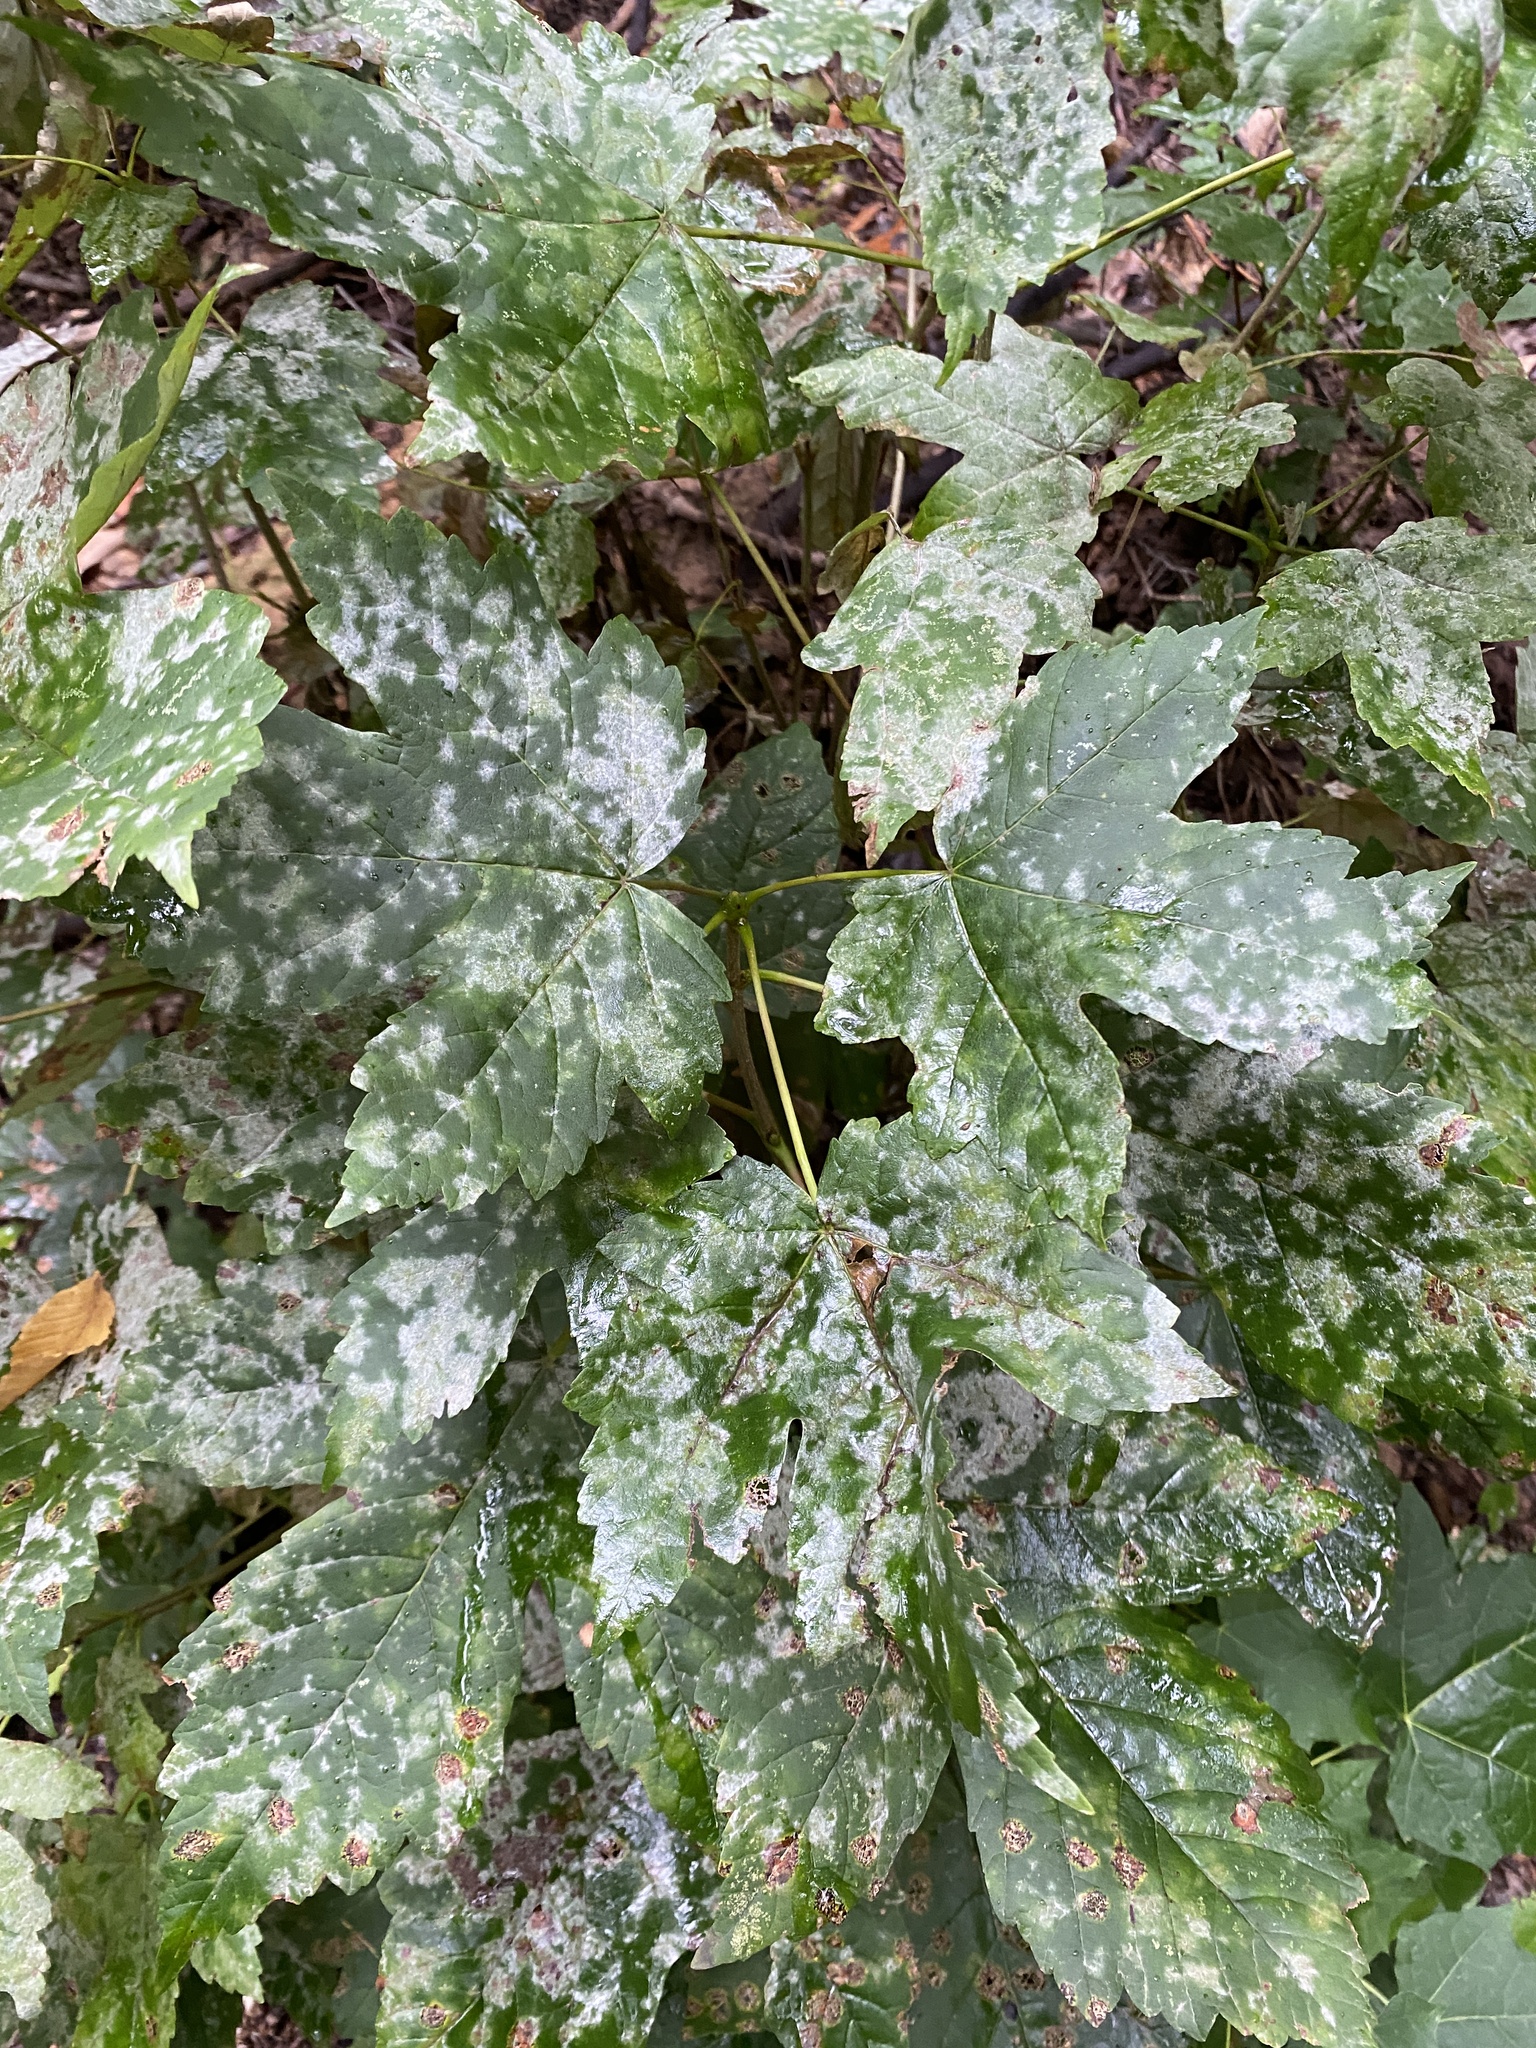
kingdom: Fungi
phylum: Ascomycota
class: Leotiomycetes
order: Helotiales
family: Erysiphaceae
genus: Sawadaea
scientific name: Sawadaea bicornis
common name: Maple mildew
